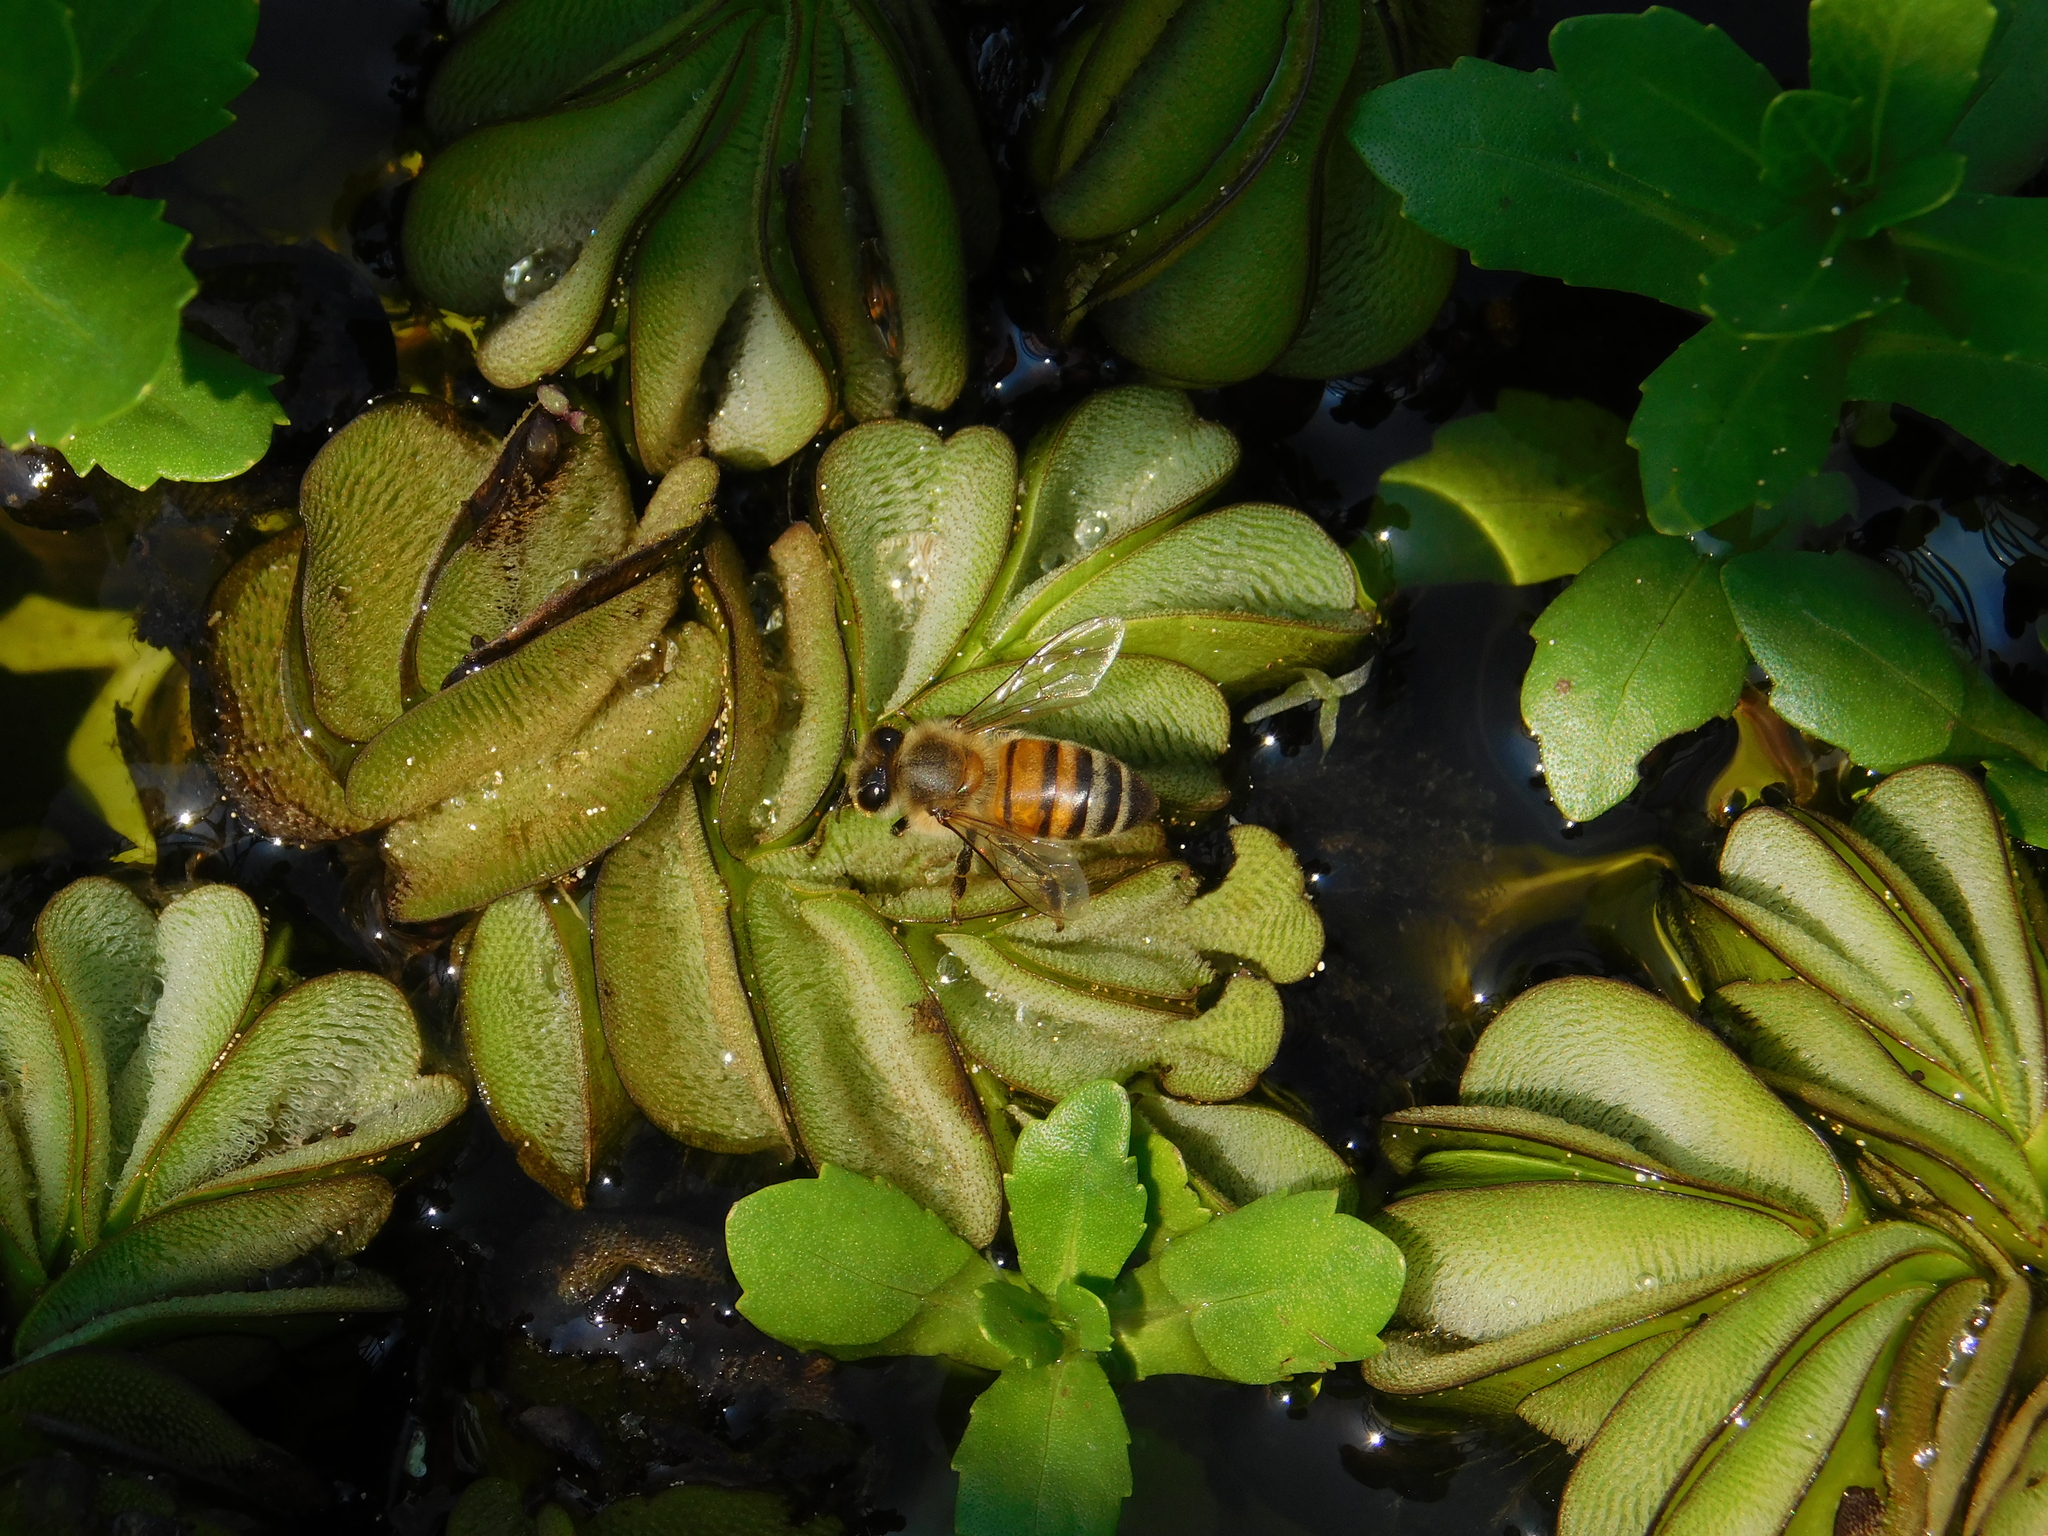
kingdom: Animalia
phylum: Arthropoda
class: Insecta
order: Hymenoptera
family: Apidae
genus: Apis
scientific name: Apis mellifera
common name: Honey bee
